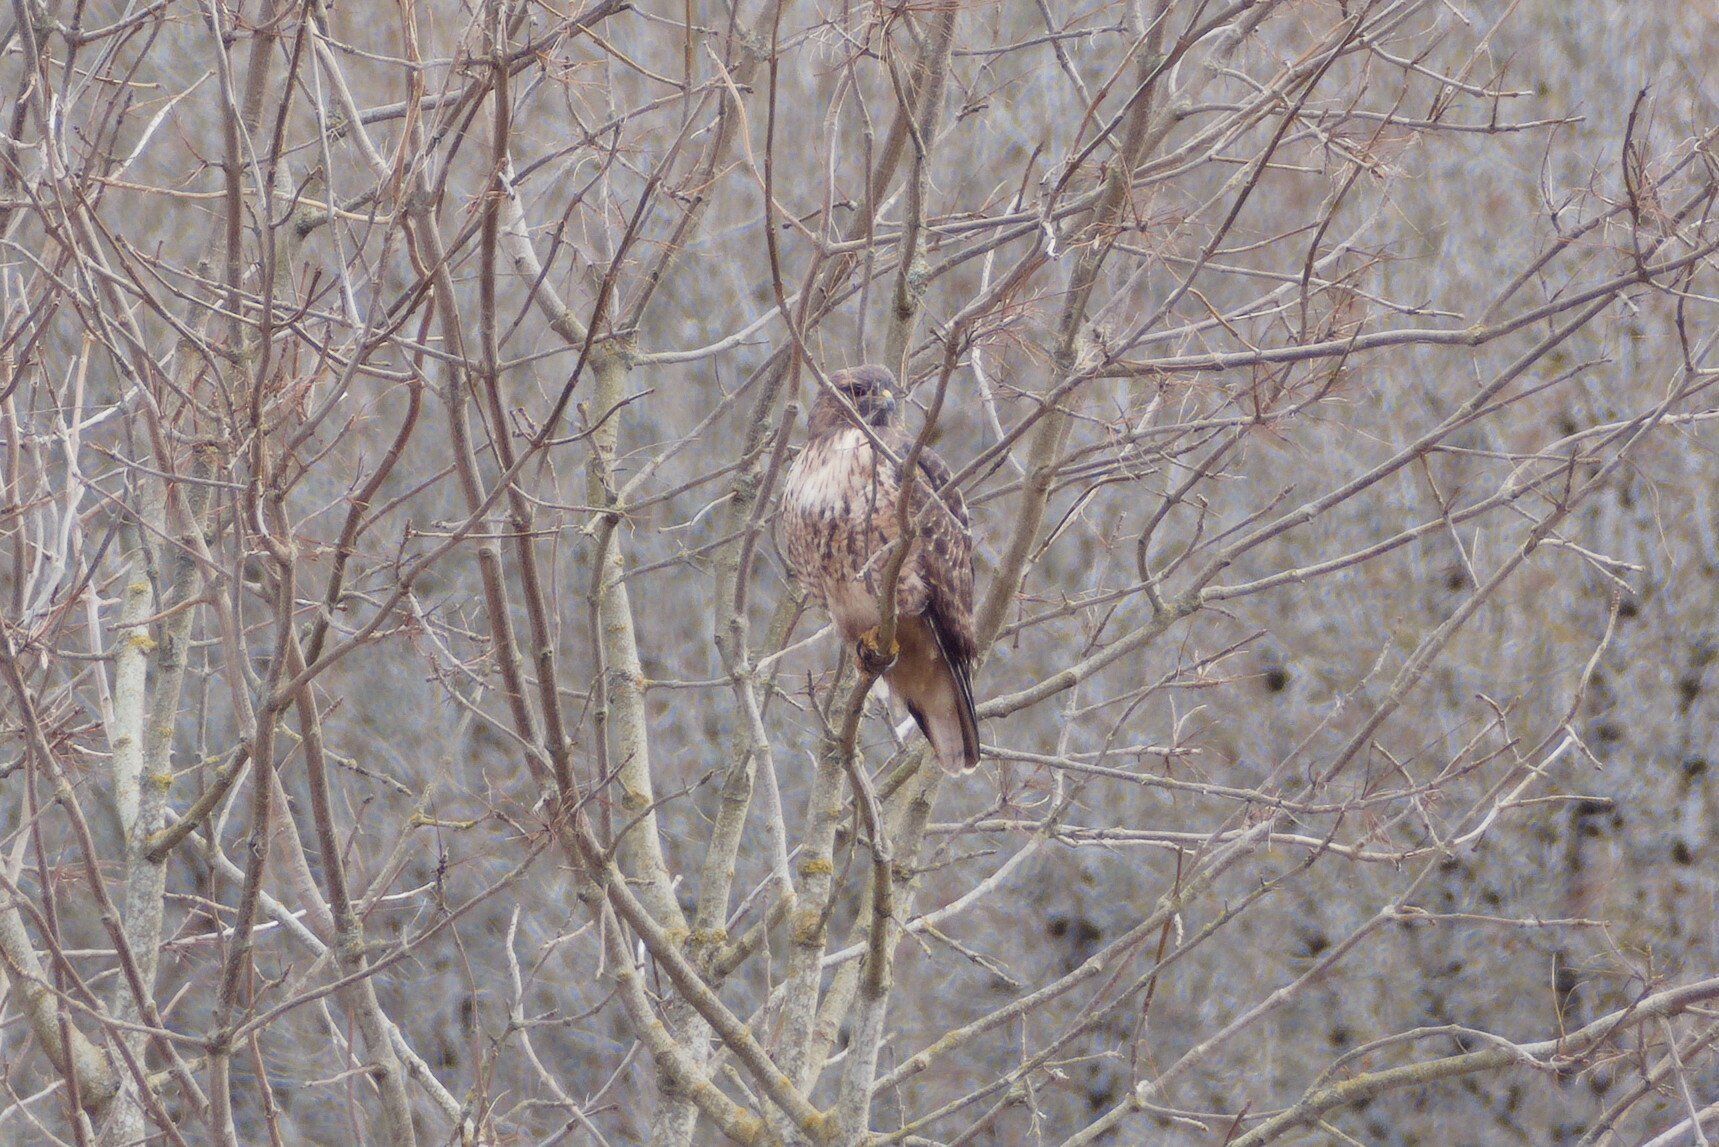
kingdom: Animalia
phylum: Chordata
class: Aves
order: Accipitriformes
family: Accipitridae
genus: Buteo
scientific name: Buteo jamaicensis
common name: Red-tailed hawk
